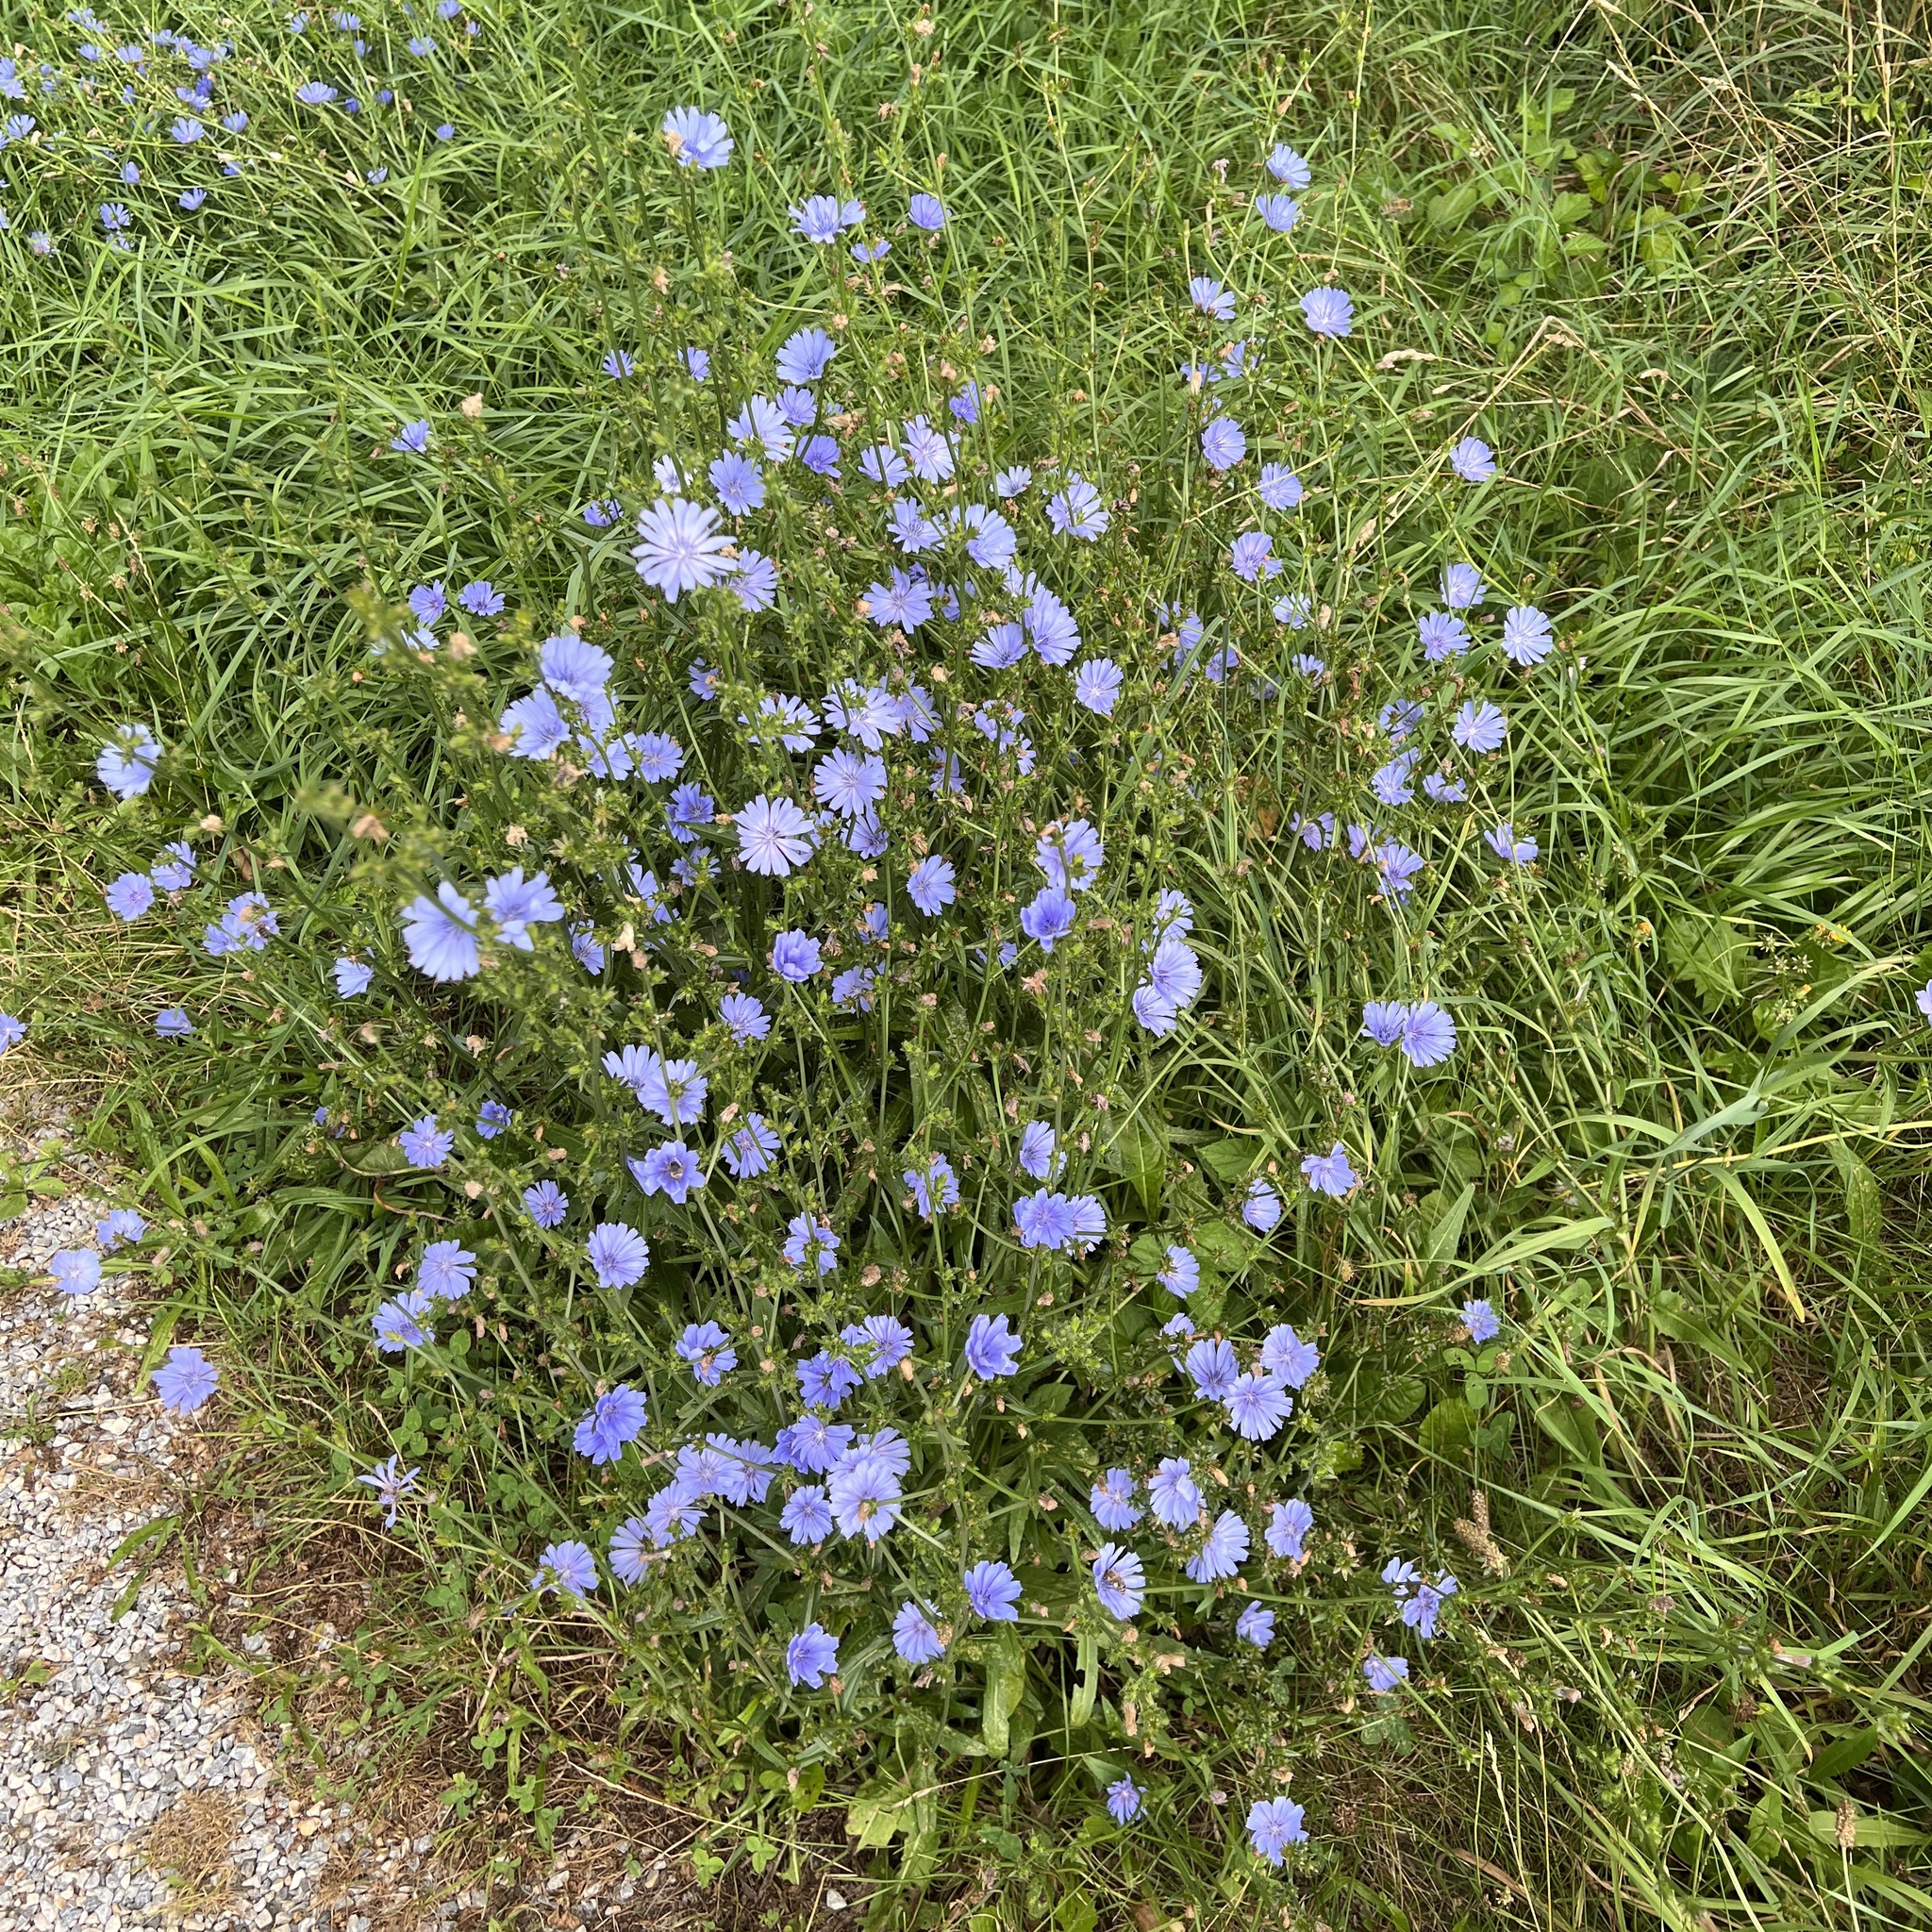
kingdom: Plantae
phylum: Tracheophyta
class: Magnoliopsida
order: Asterales
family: Asteraceae
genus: Cichorium
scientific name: Cichorium intybus
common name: Chicory
